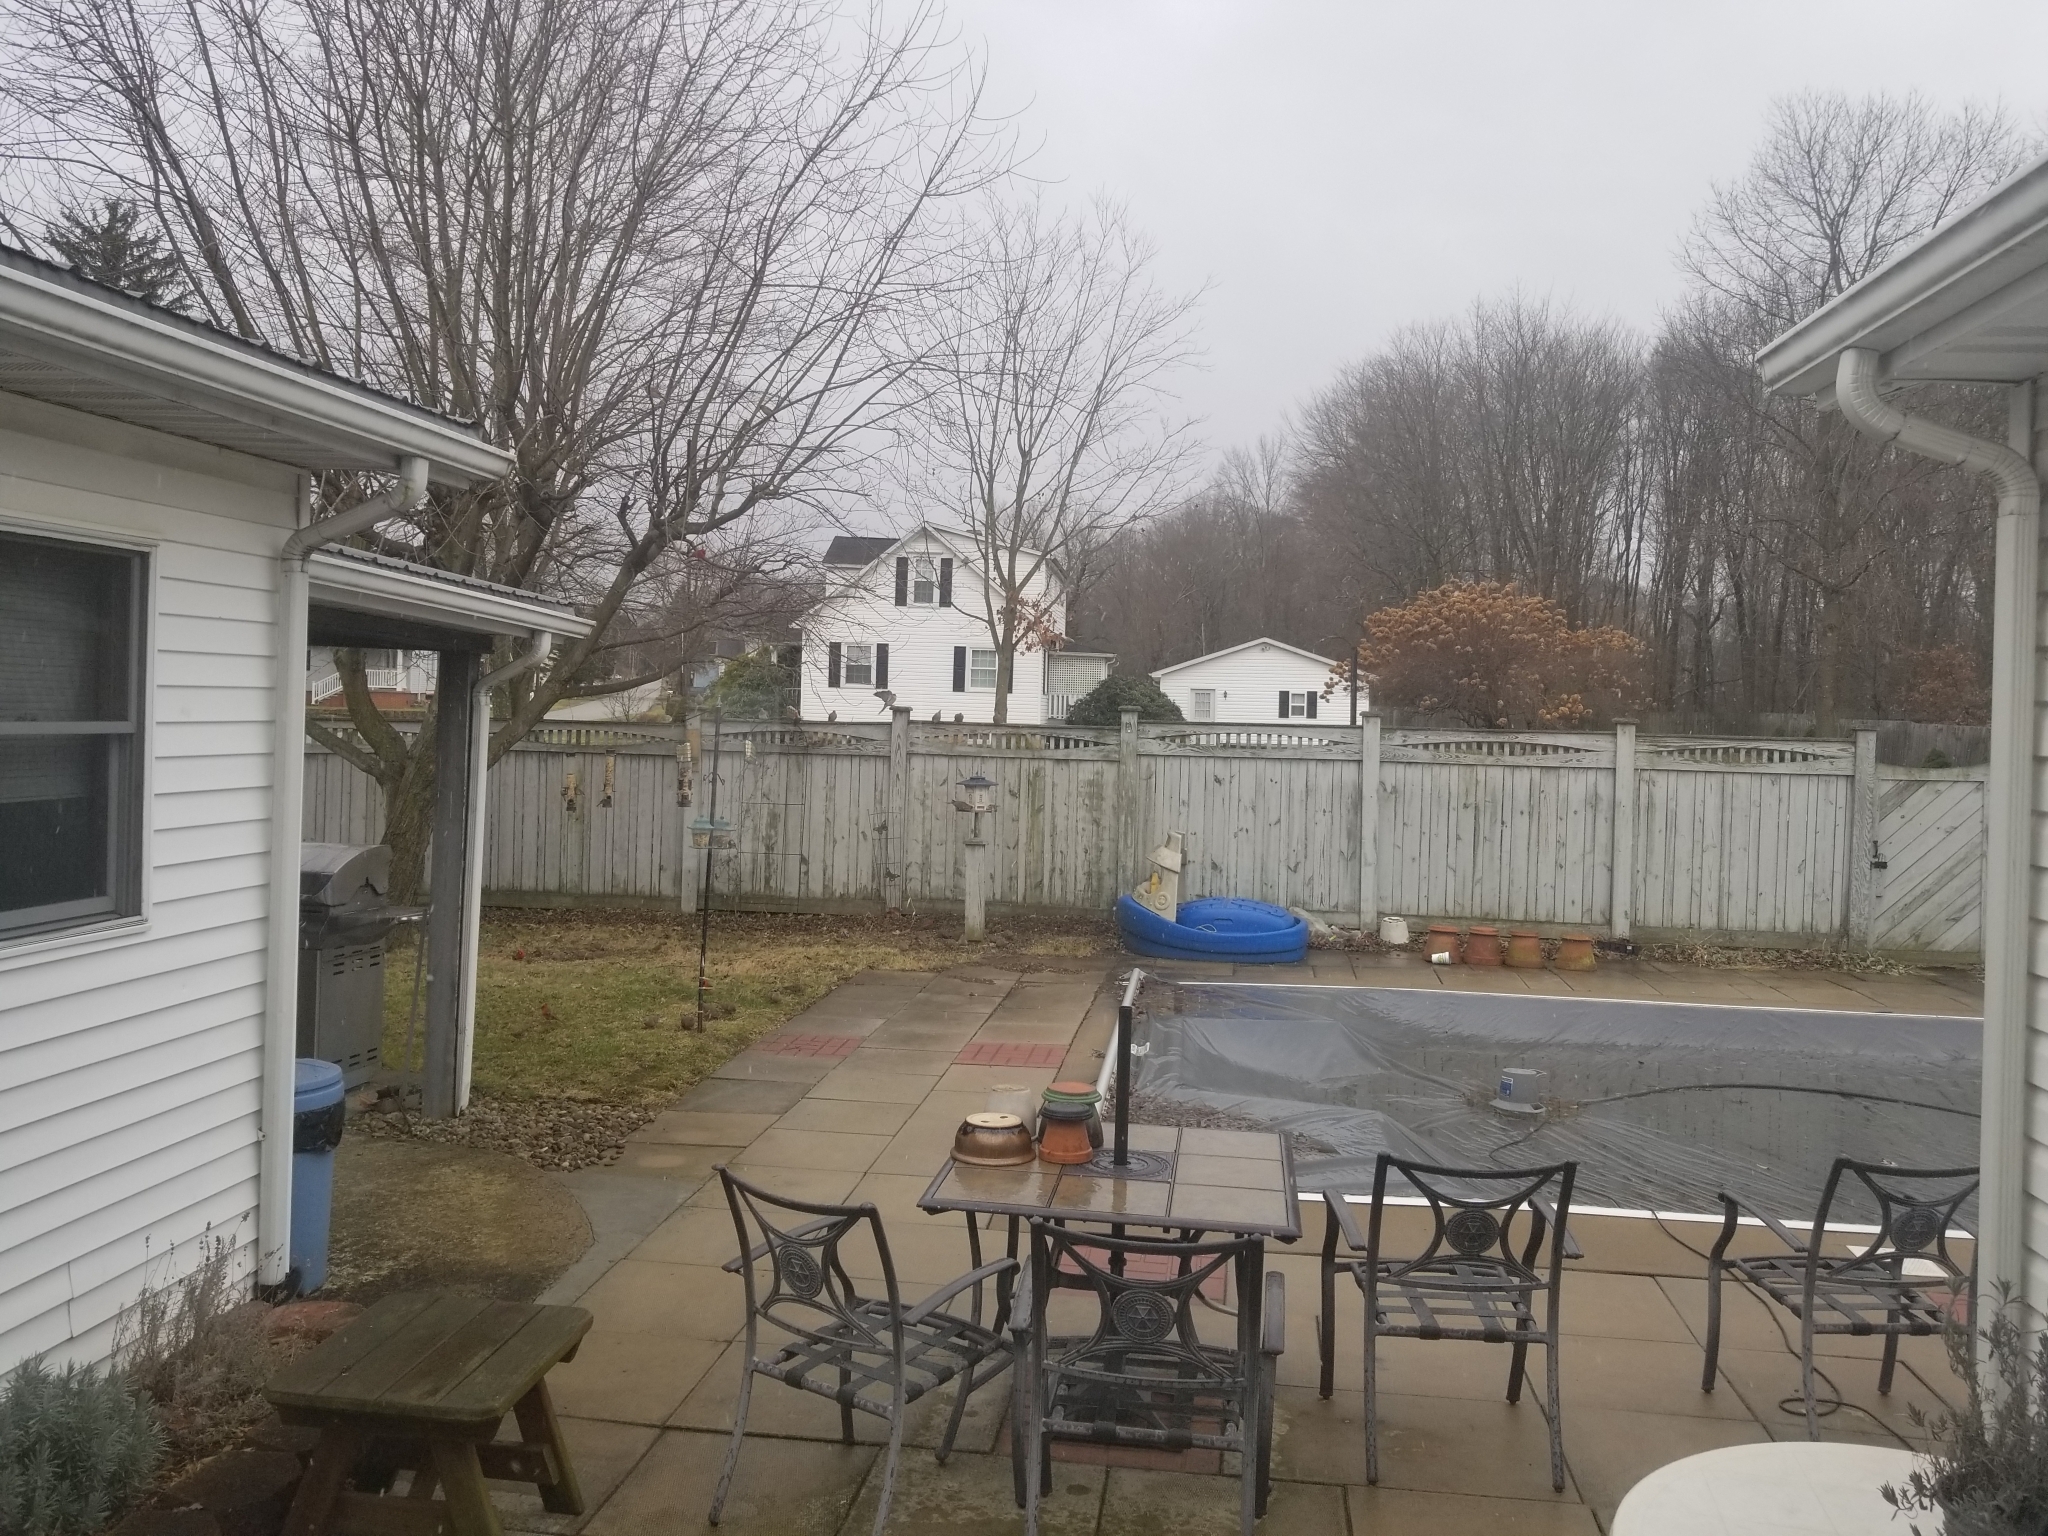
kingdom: Animalia
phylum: Chordata
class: Aves
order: Passeriformes
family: Sturnidae
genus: Sturnus
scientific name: Sturnus vulgaris
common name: Common starling
